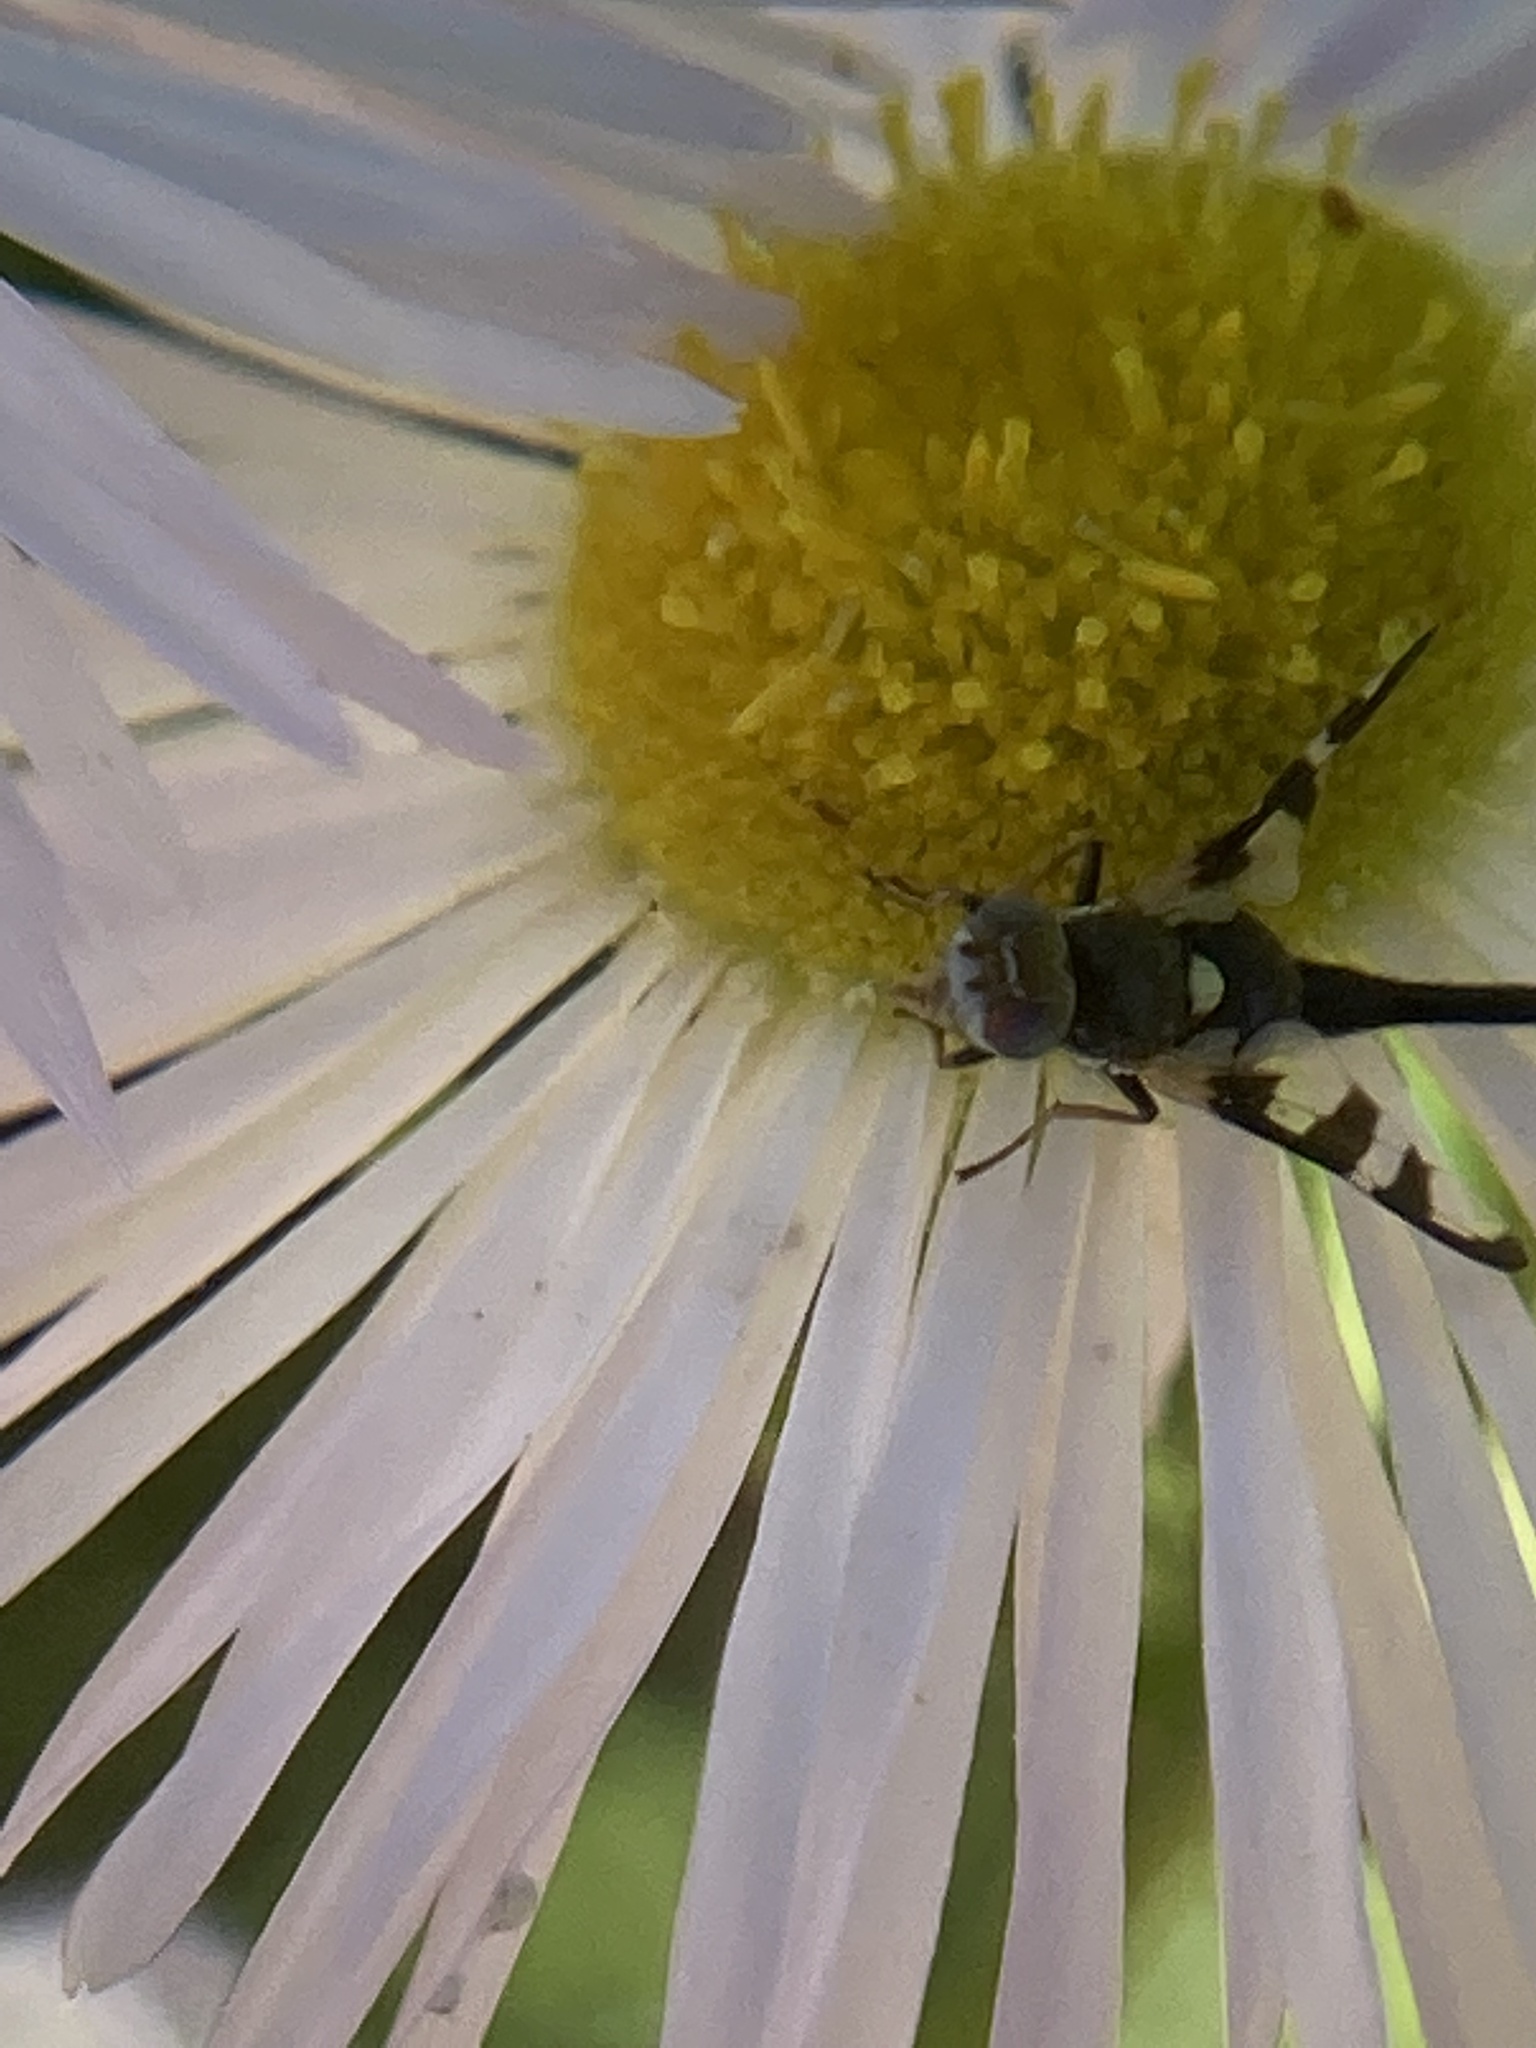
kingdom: Animalia
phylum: Arthropoda
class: Insecta
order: Diptera
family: Tephritidae
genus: Urophora
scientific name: Urophora quadrifasciata
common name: Knapweed seedhead fly
